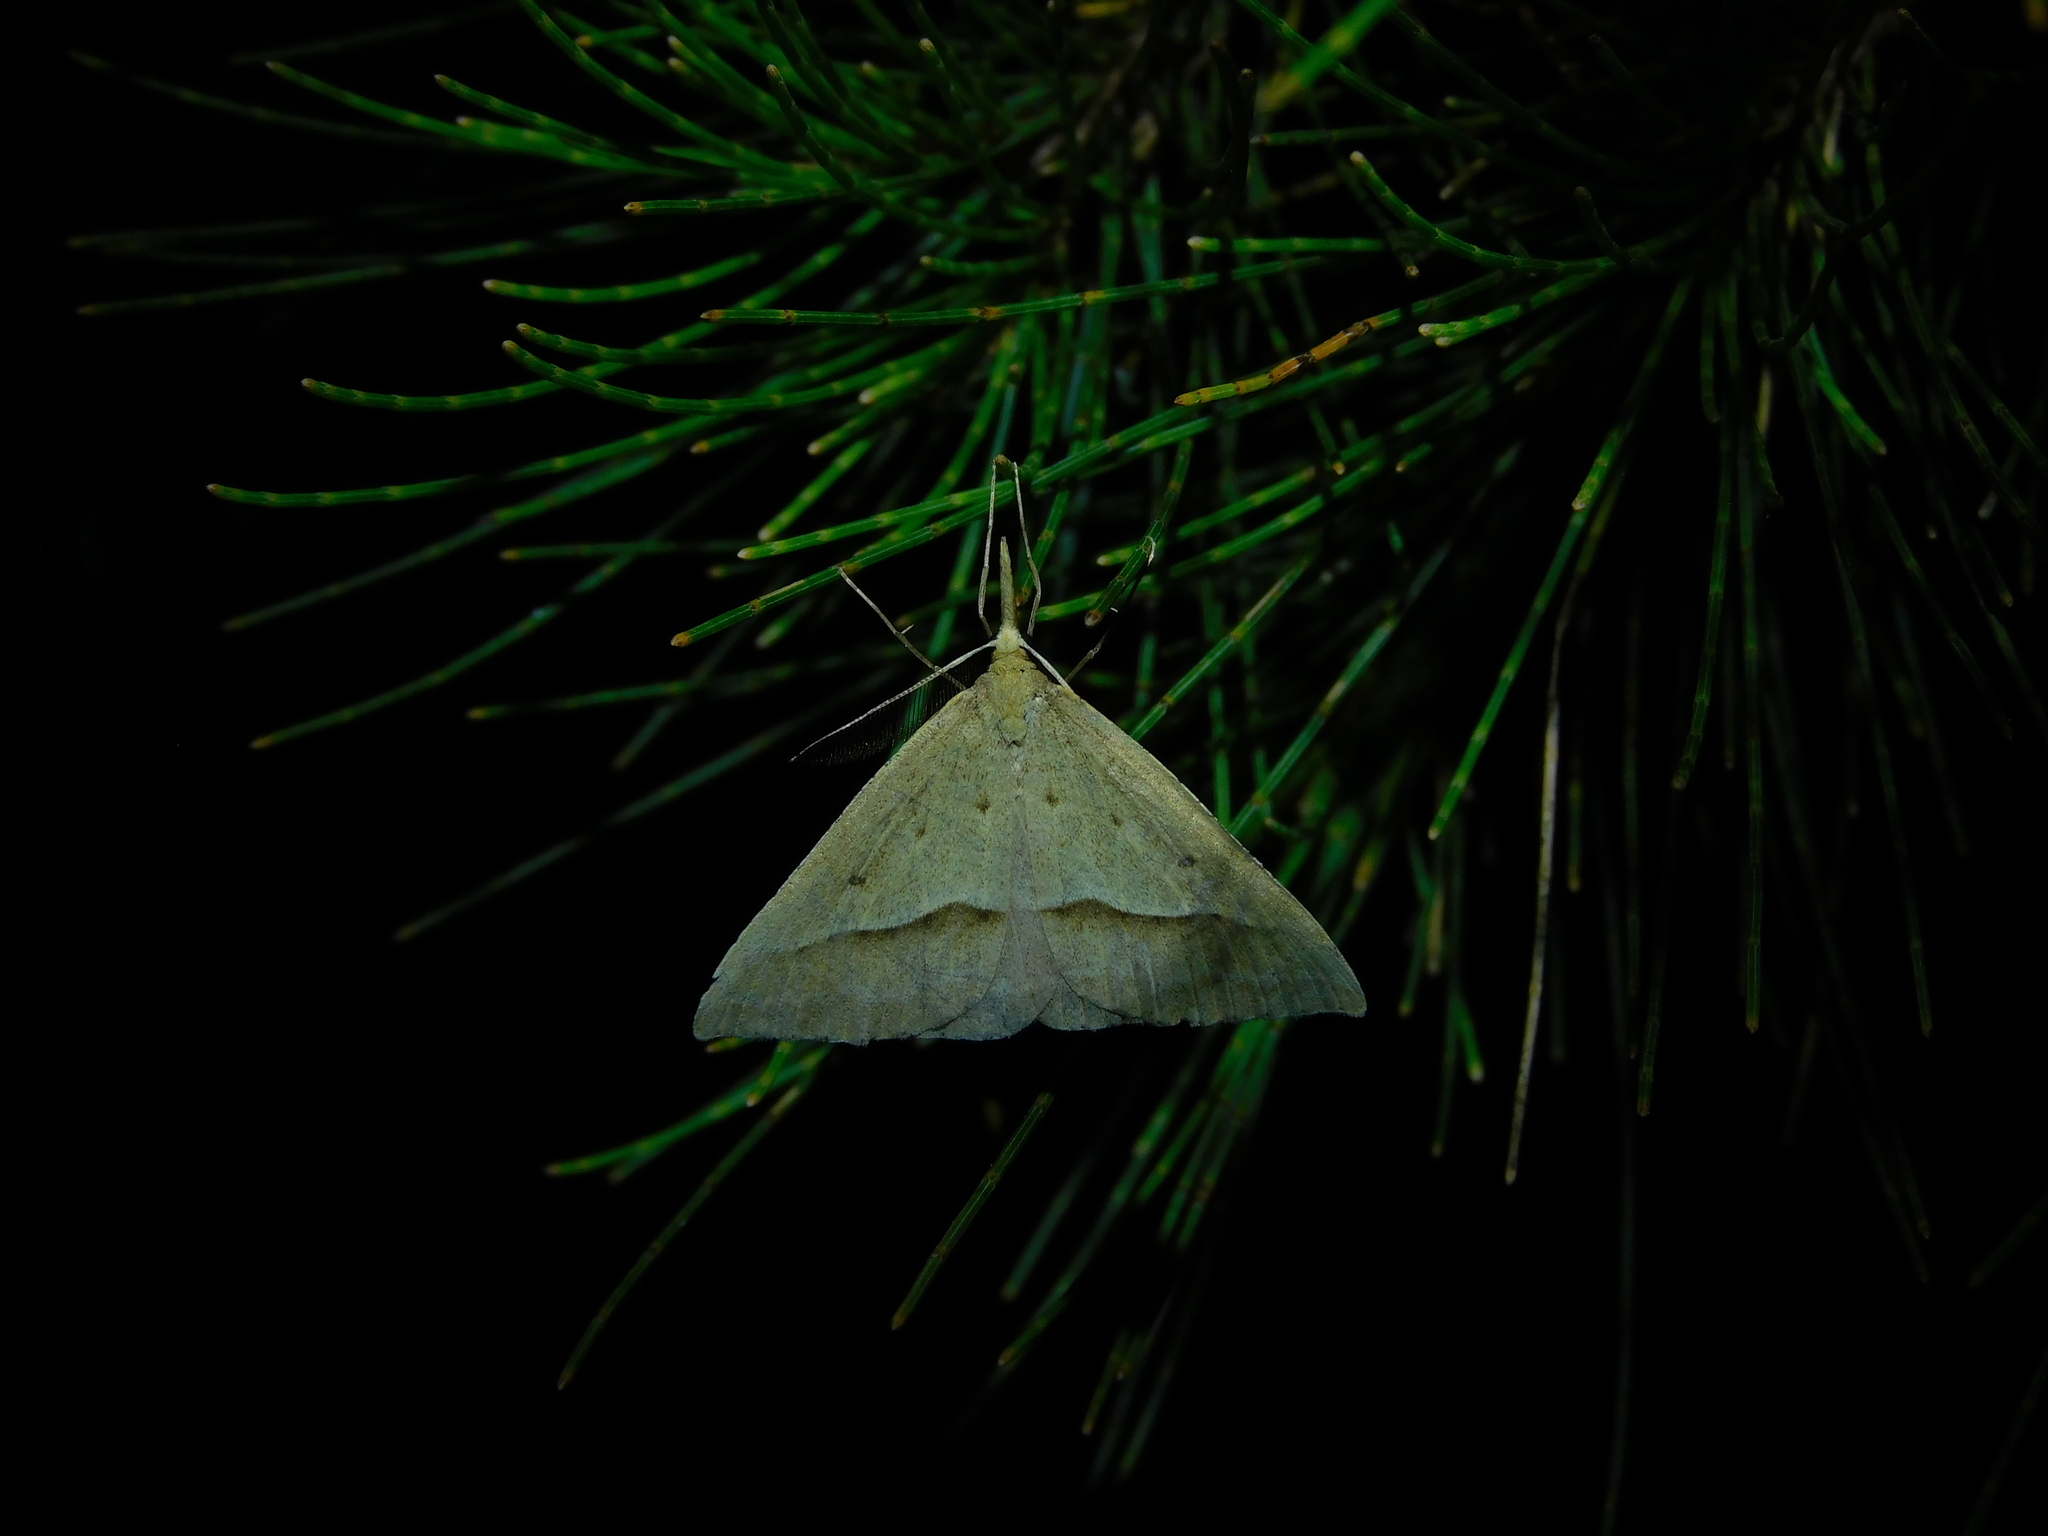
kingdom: Animalia
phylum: Arthropoda
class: Insecta
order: Lepidoptera
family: Geometridae
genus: Epidesmia
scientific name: Epidesmia hypenaria
